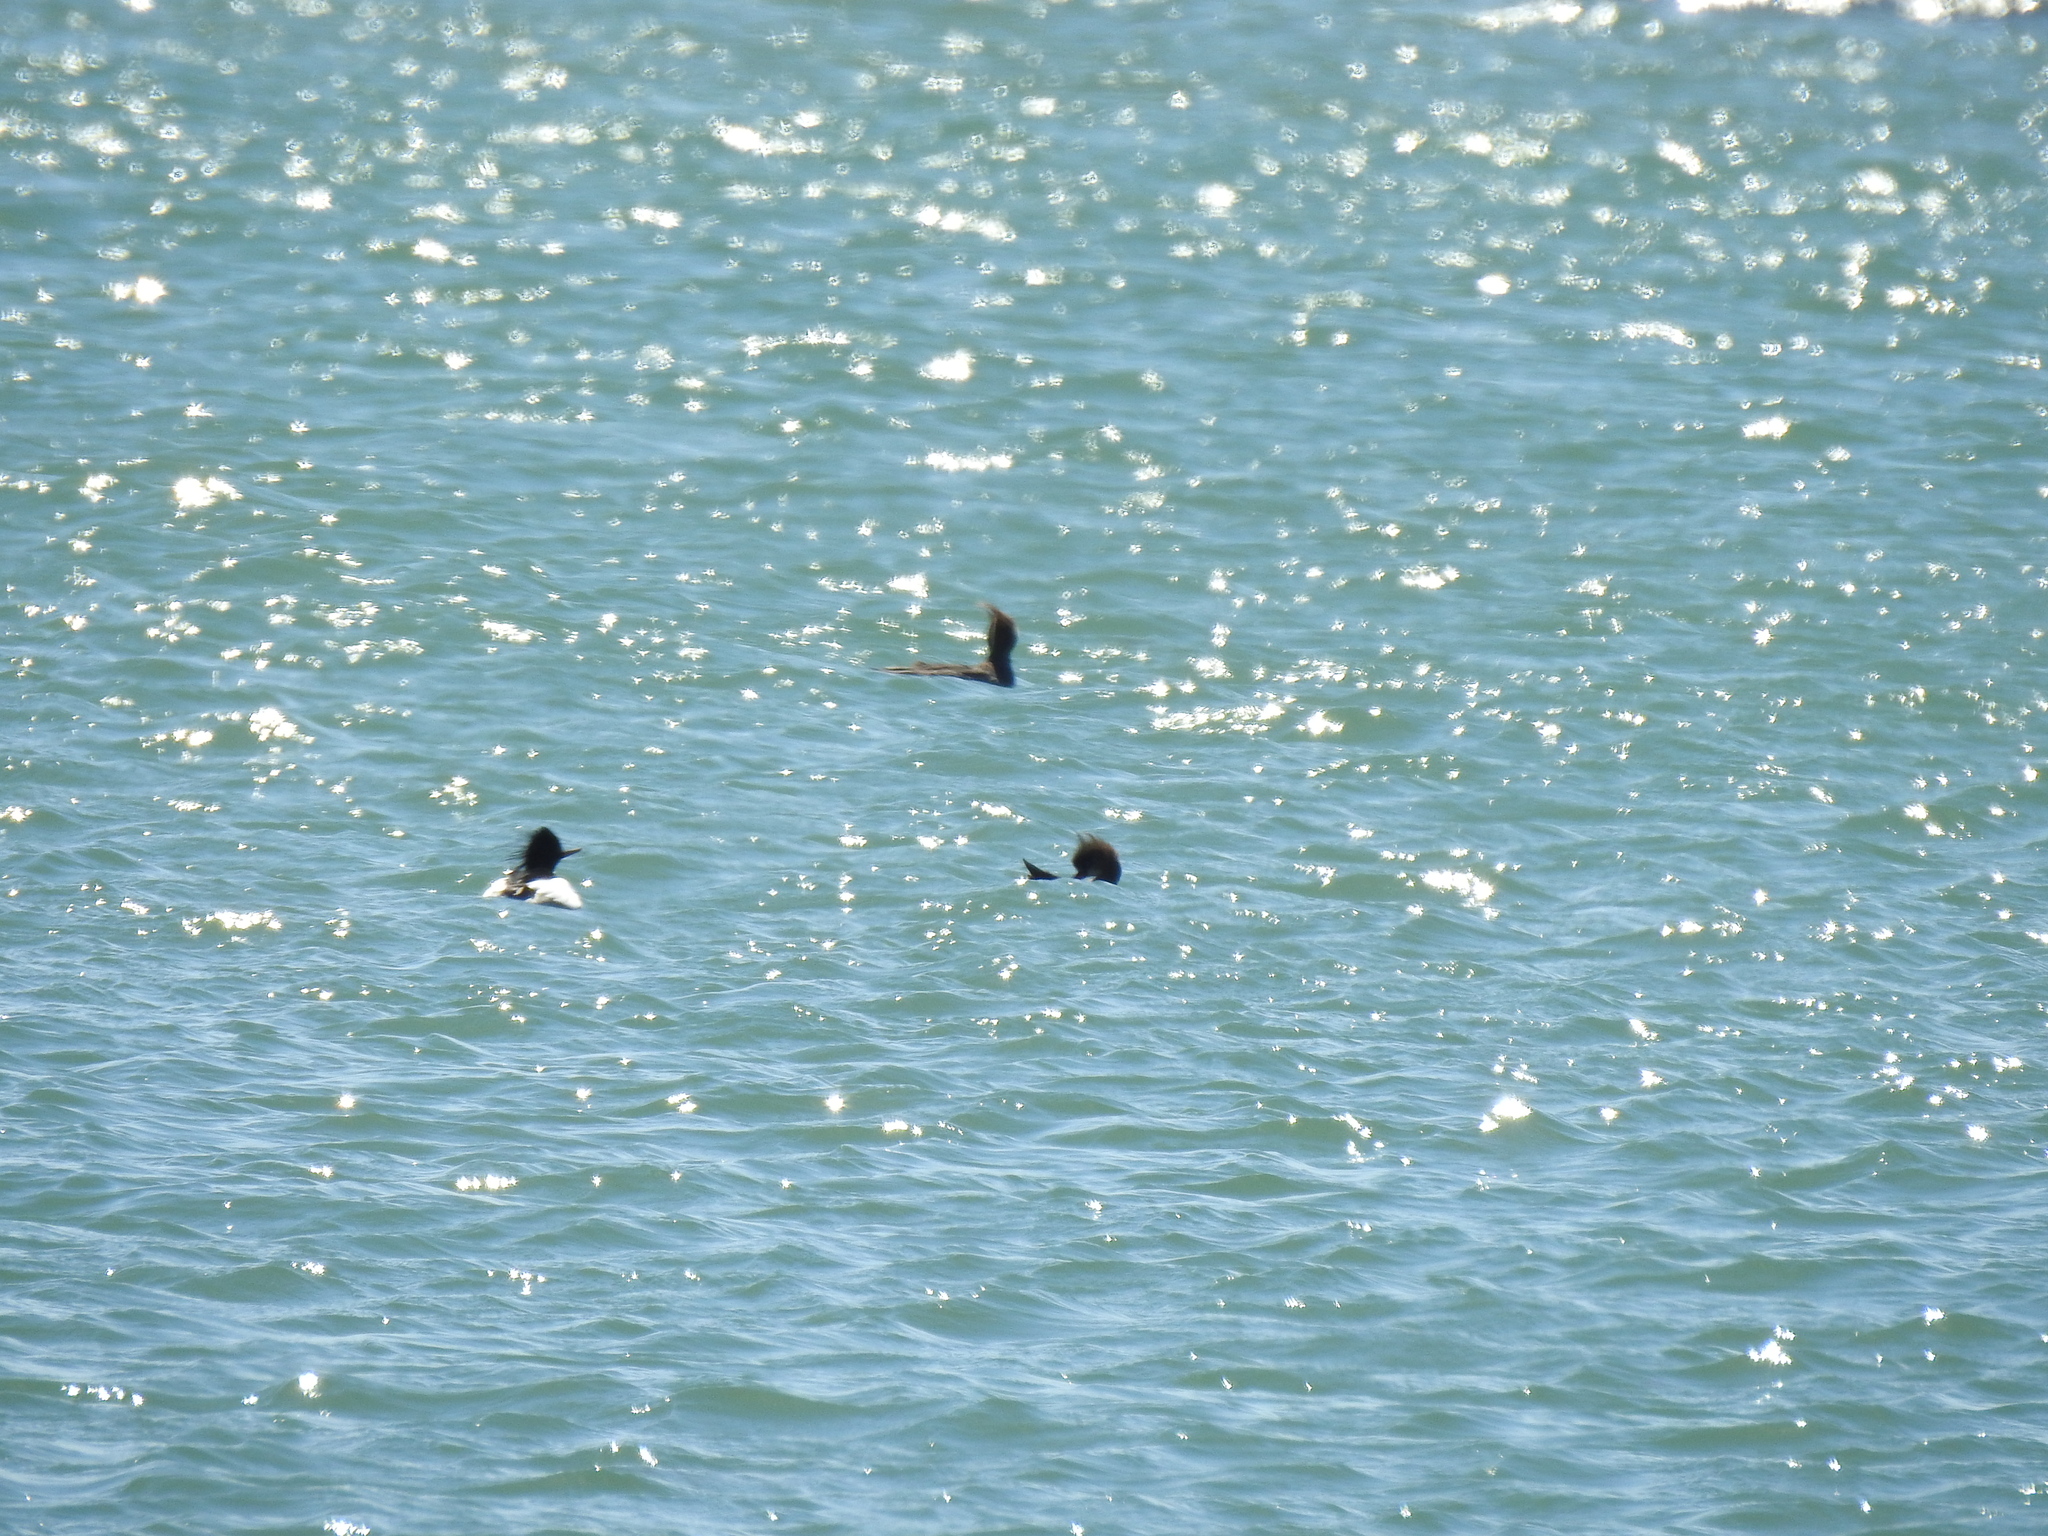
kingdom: Animalia
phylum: Chordata
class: Aves
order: Anseriformes
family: Anatidae
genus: Mergus
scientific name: Mergus serrator
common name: Red-breasted merganser
